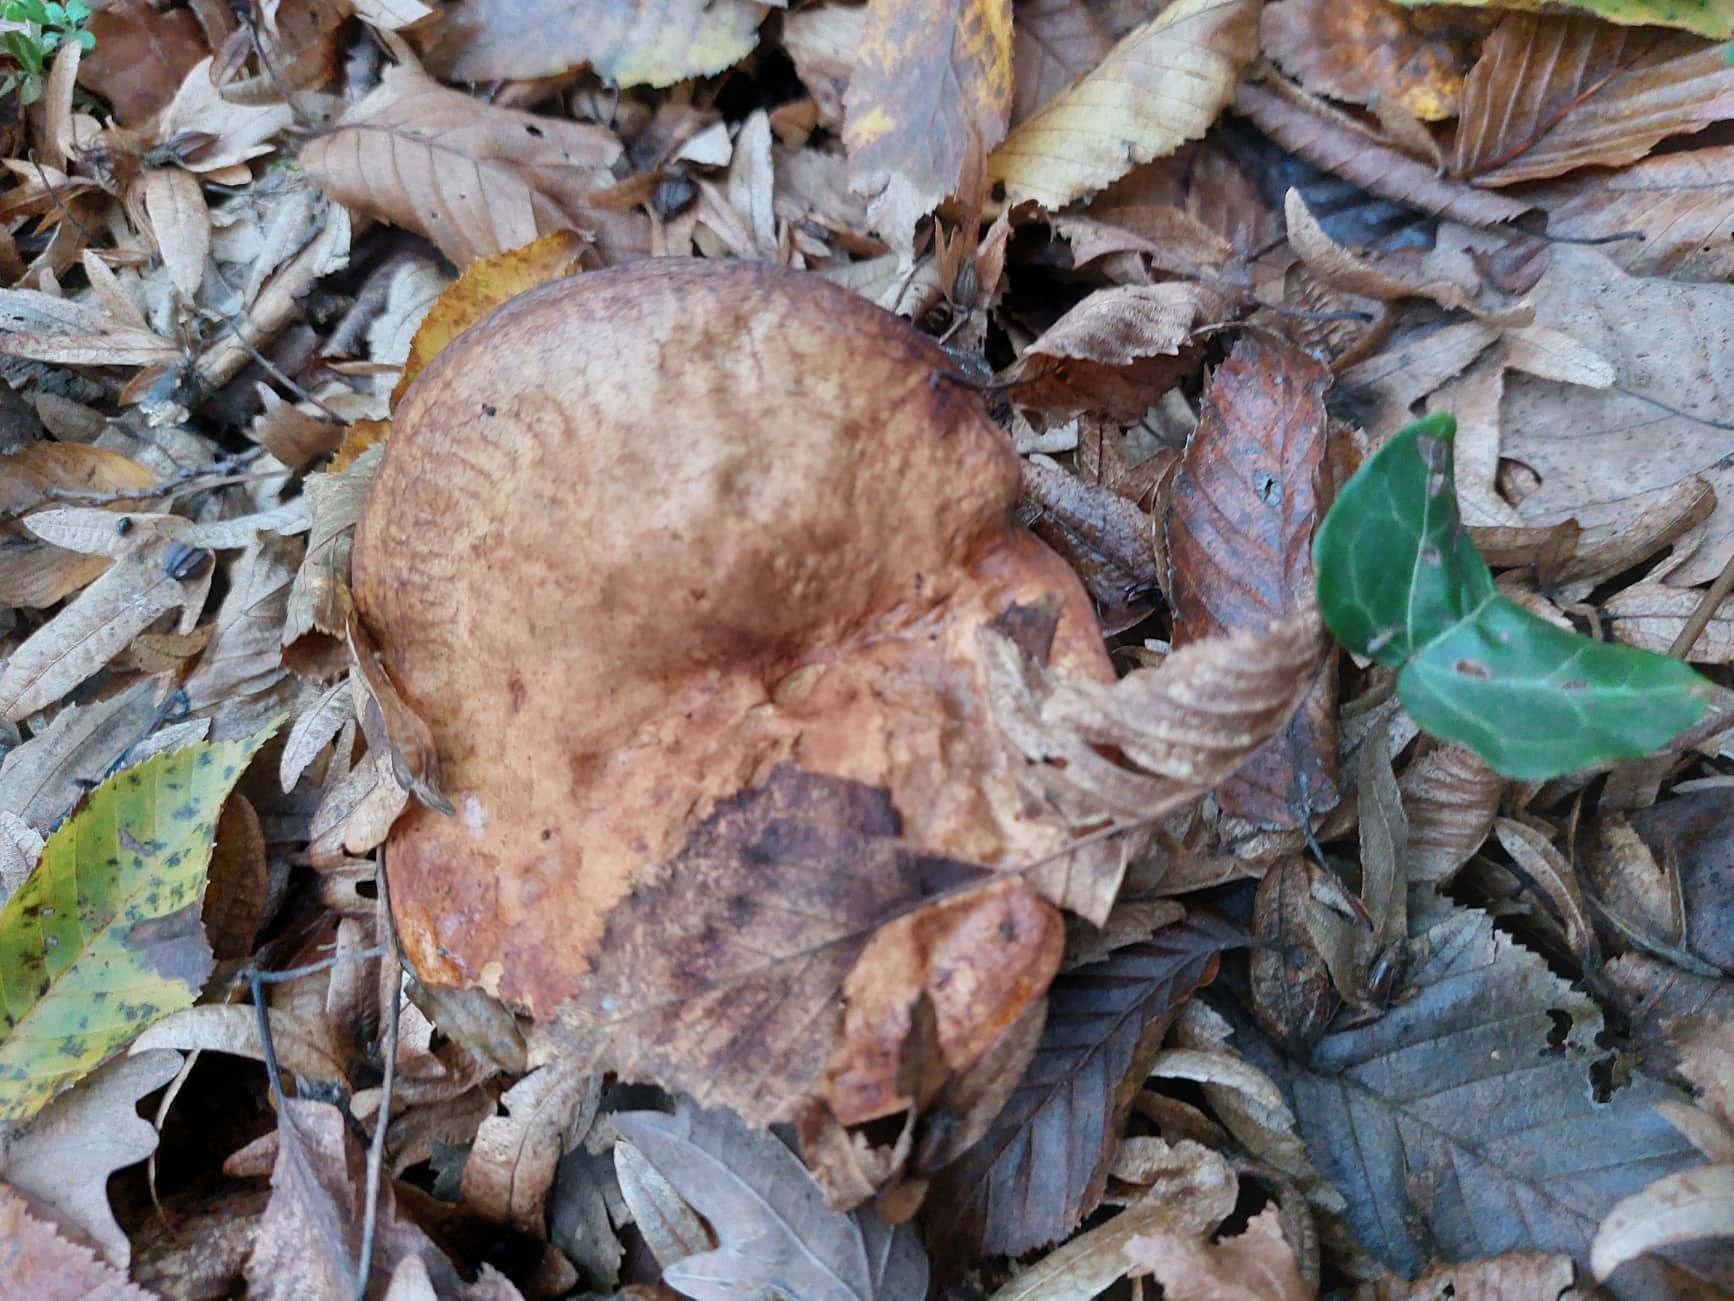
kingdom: Fungi
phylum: Basidiomycota
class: Agaricomycetes
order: Boletales
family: Paxillaceae
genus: Paxillus
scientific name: Paxillus involutus
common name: Brown roll rim
